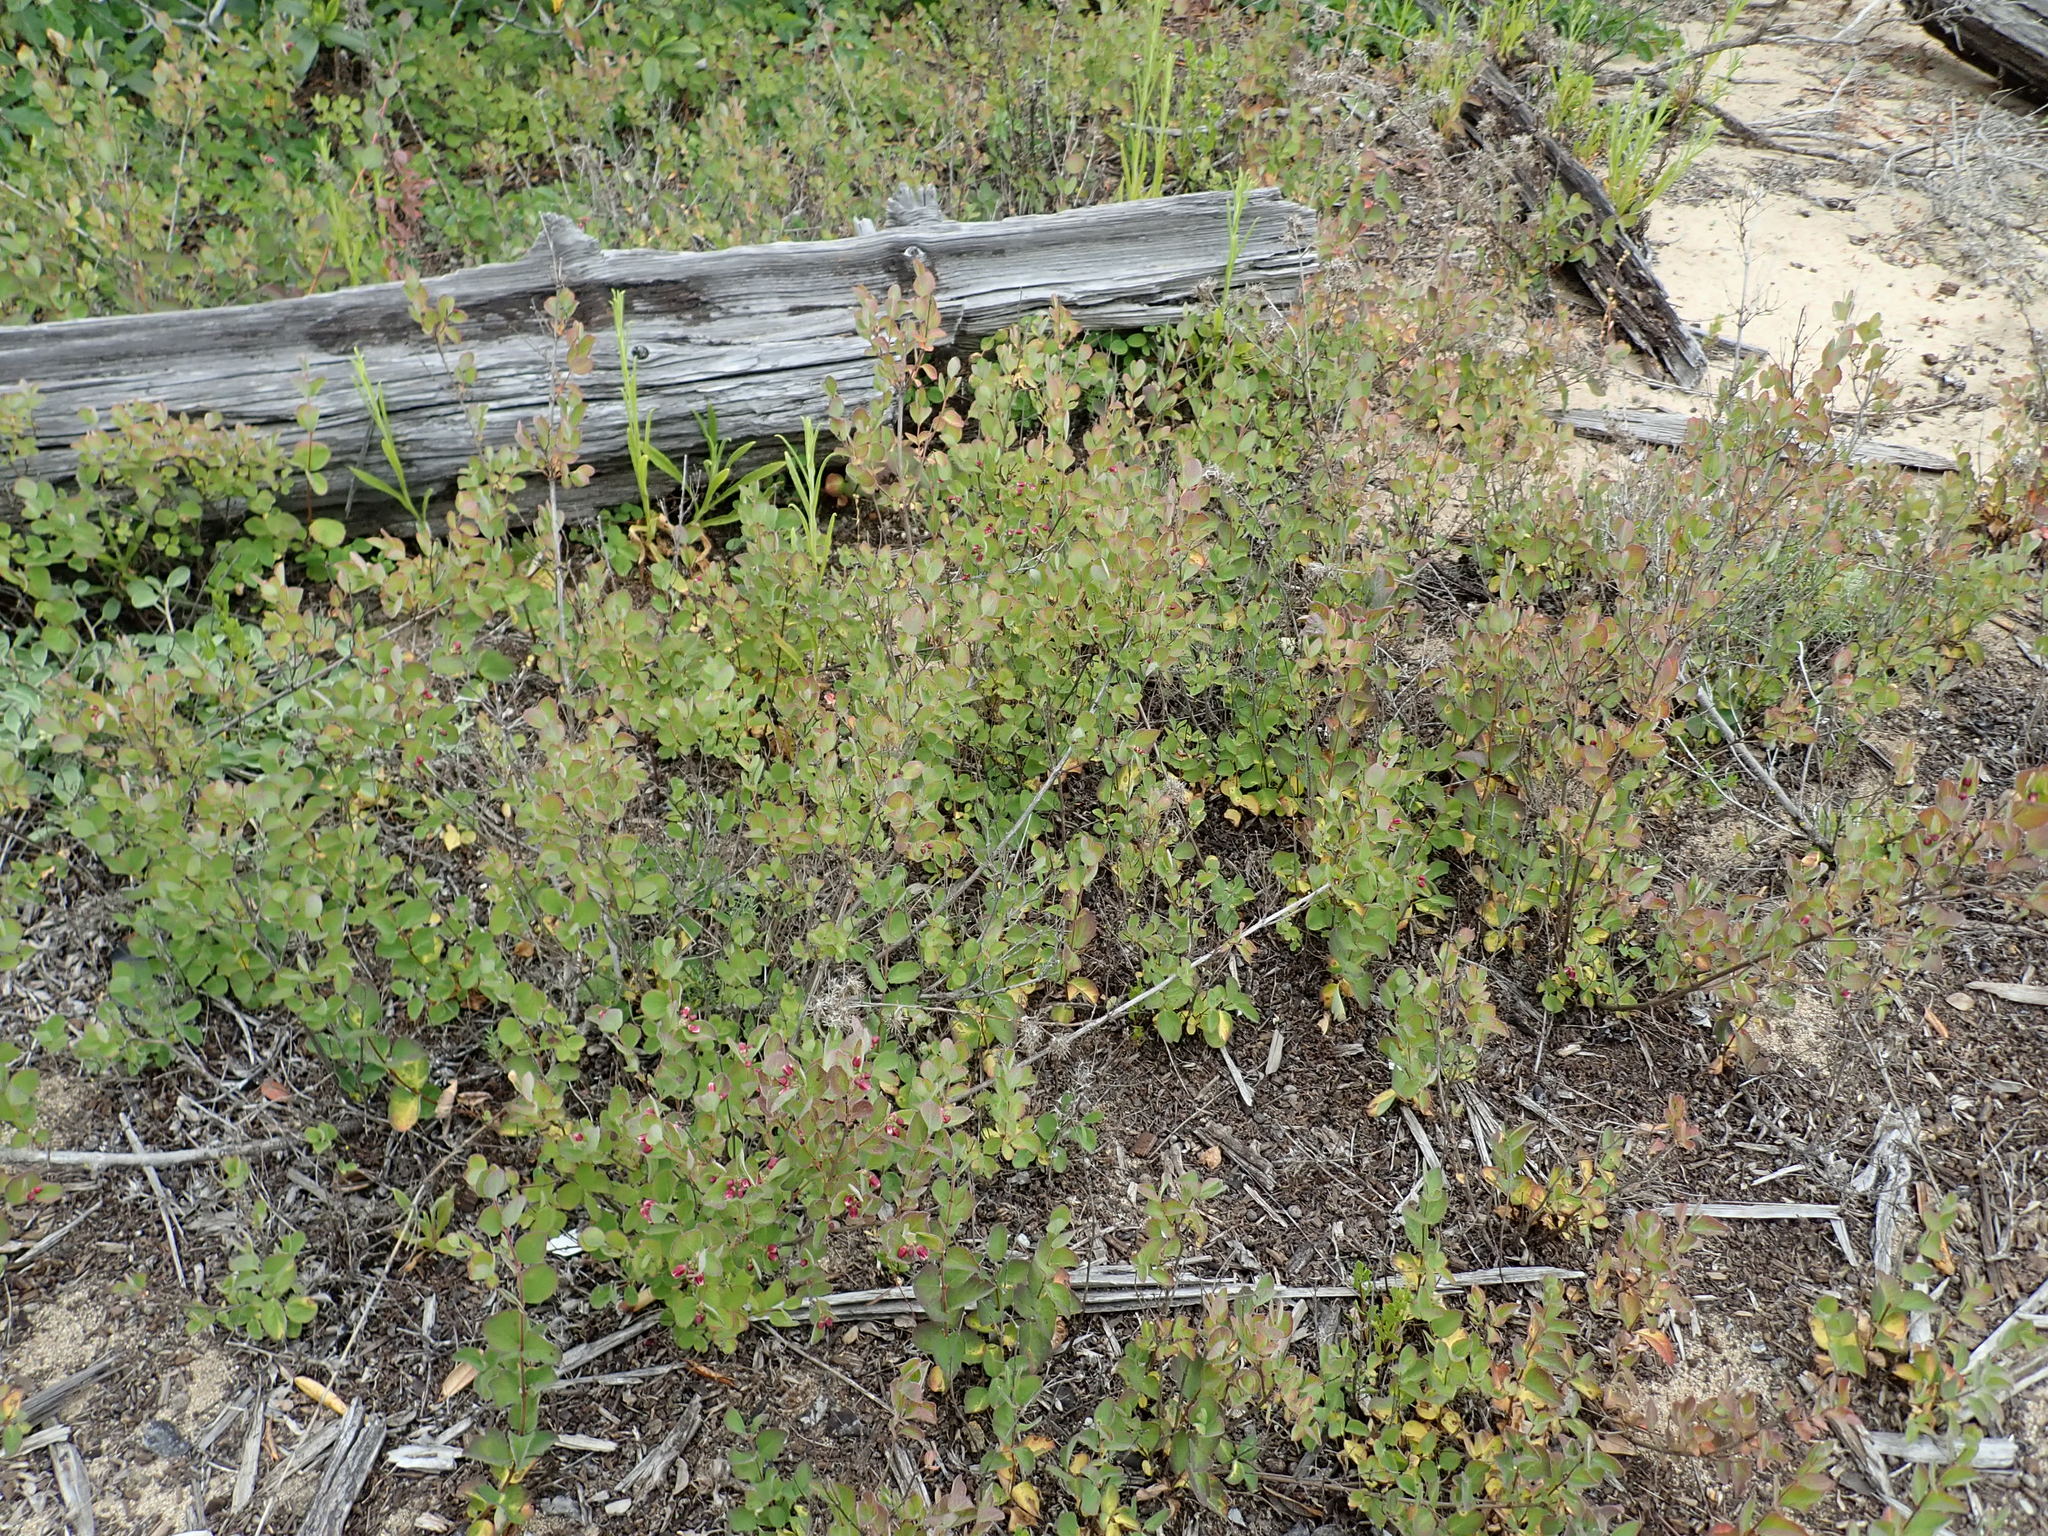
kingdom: Plantae
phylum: Tracheophyta
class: Magnoliopsida
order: Dipsacales
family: Caprifoliaceae
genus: Symphoricarpos
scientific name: Symphoricarpos mollis
